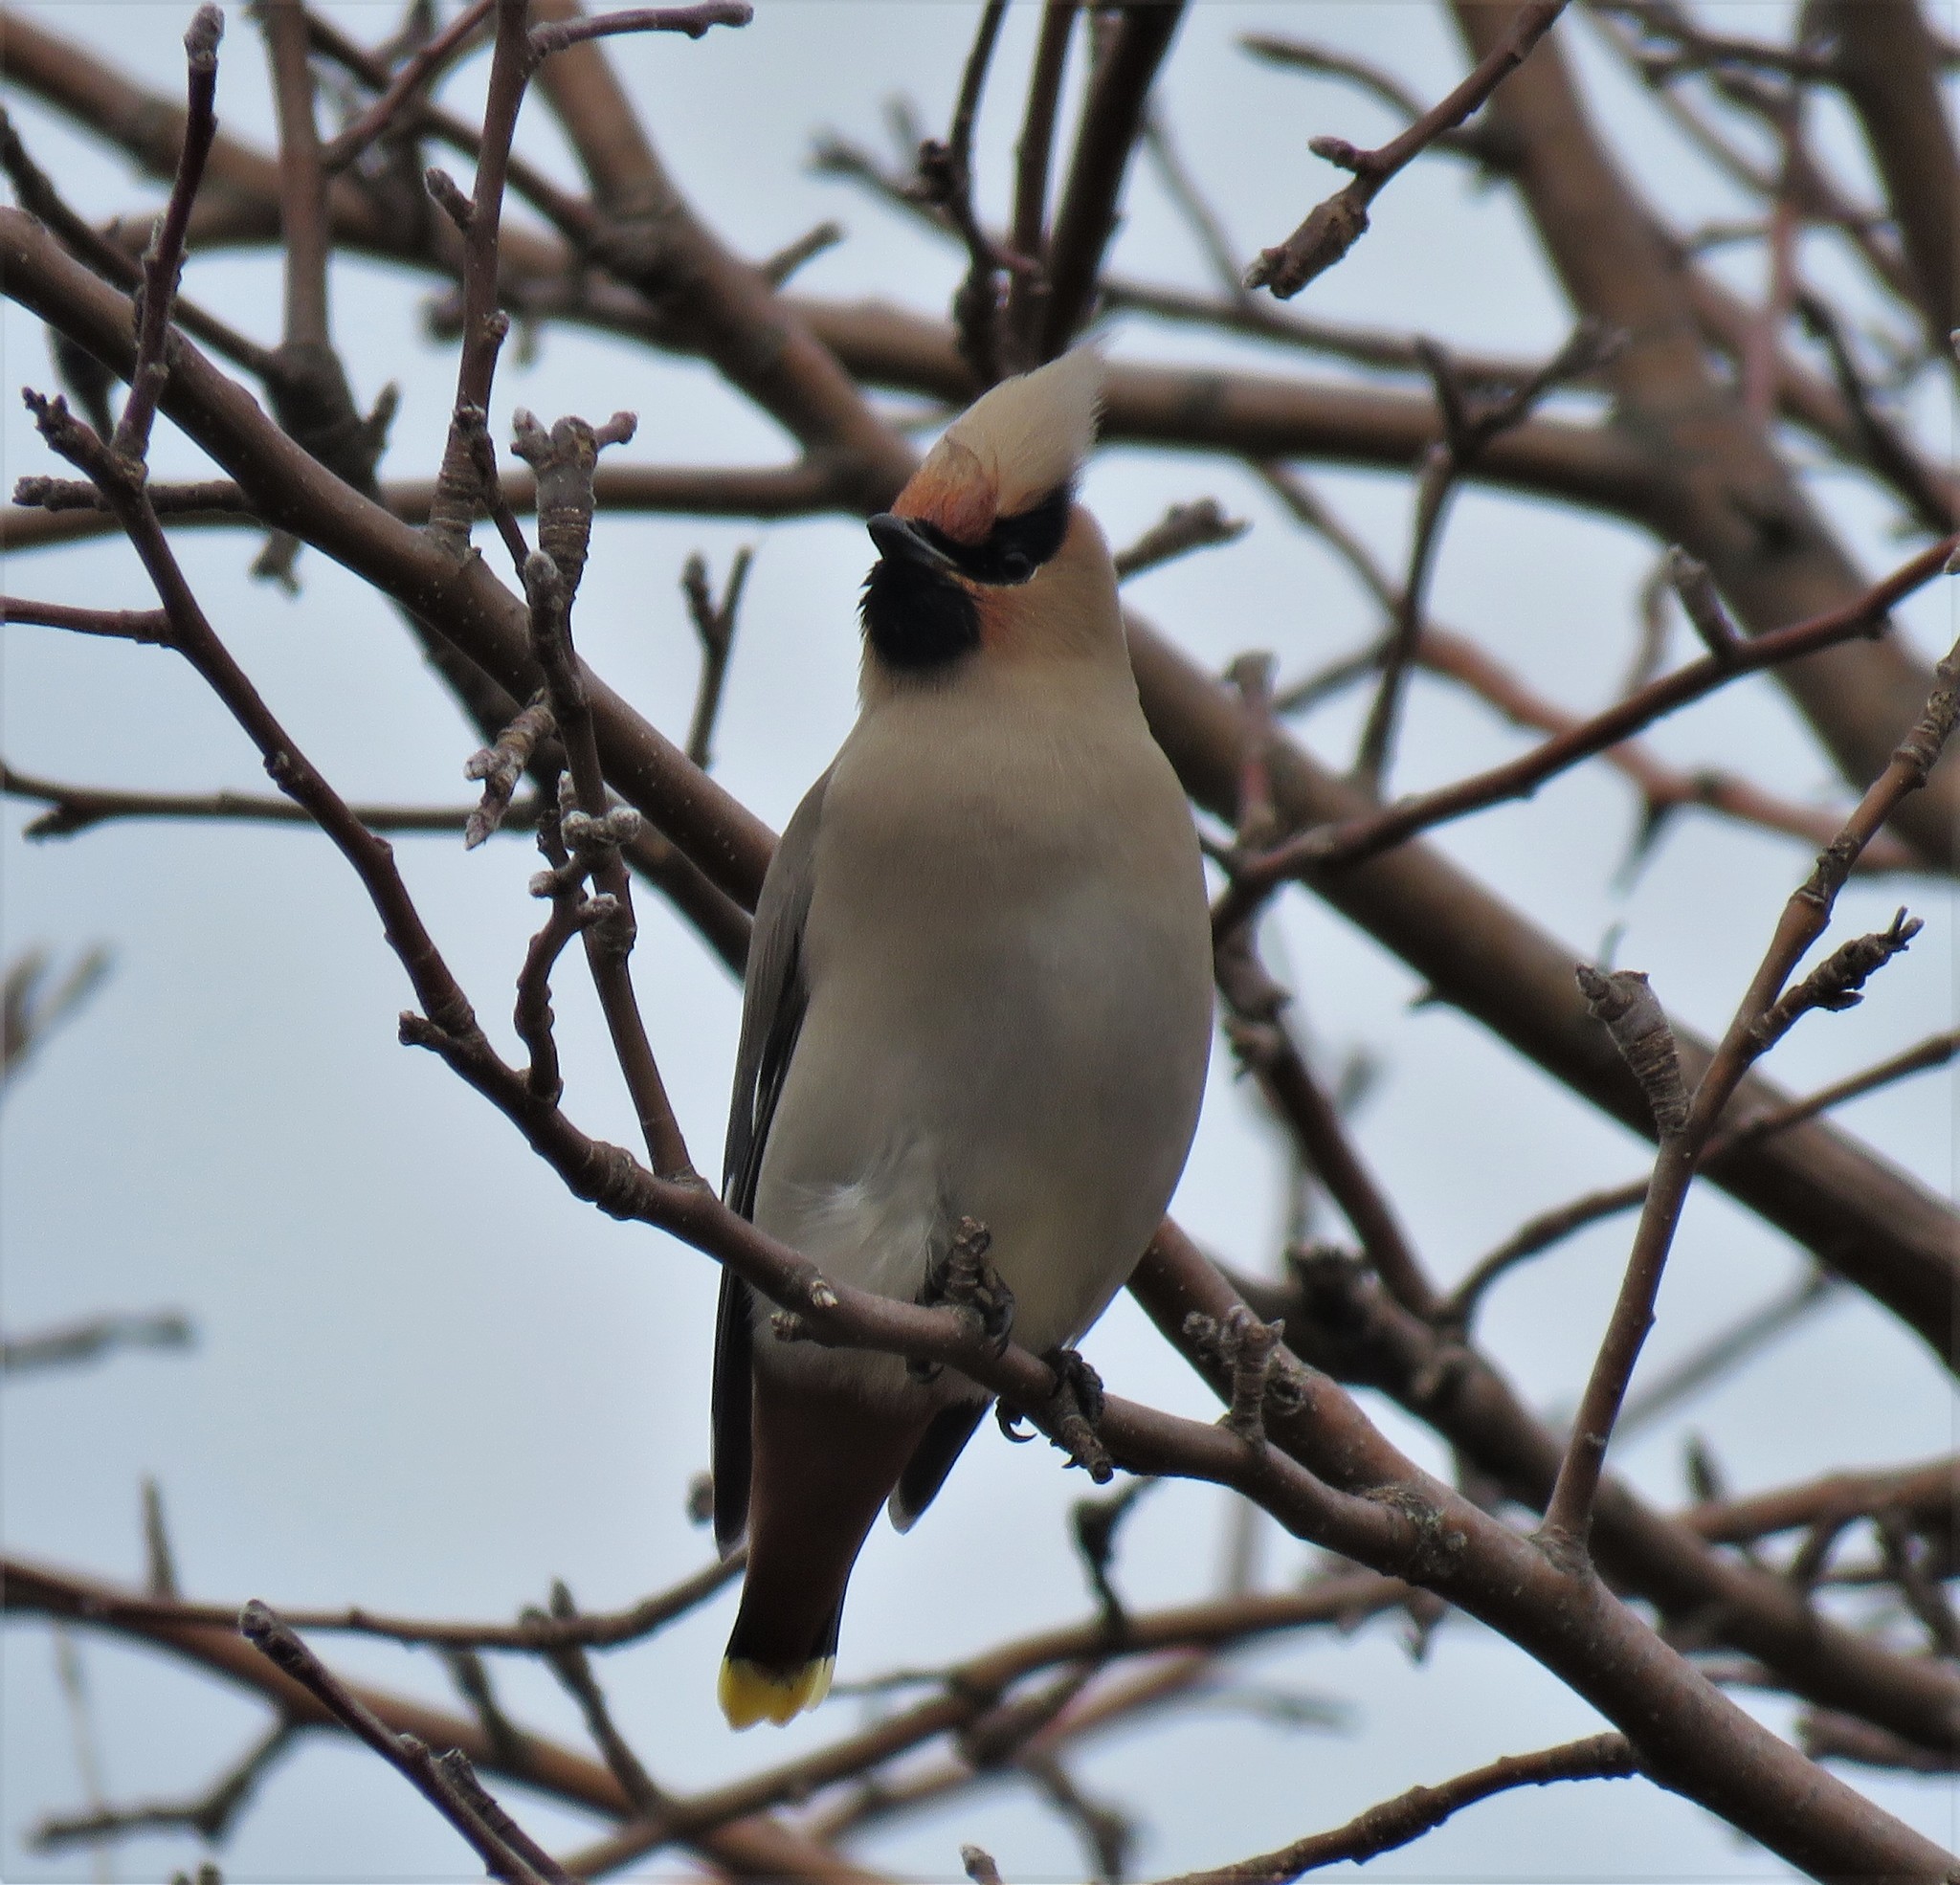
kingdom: Animalia
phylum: Chordata
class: Aves
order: Passeriformes
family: Bombycillidae
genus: Bombycilla
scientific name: Bombycilla garrulus
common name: Bohemian waxwing
